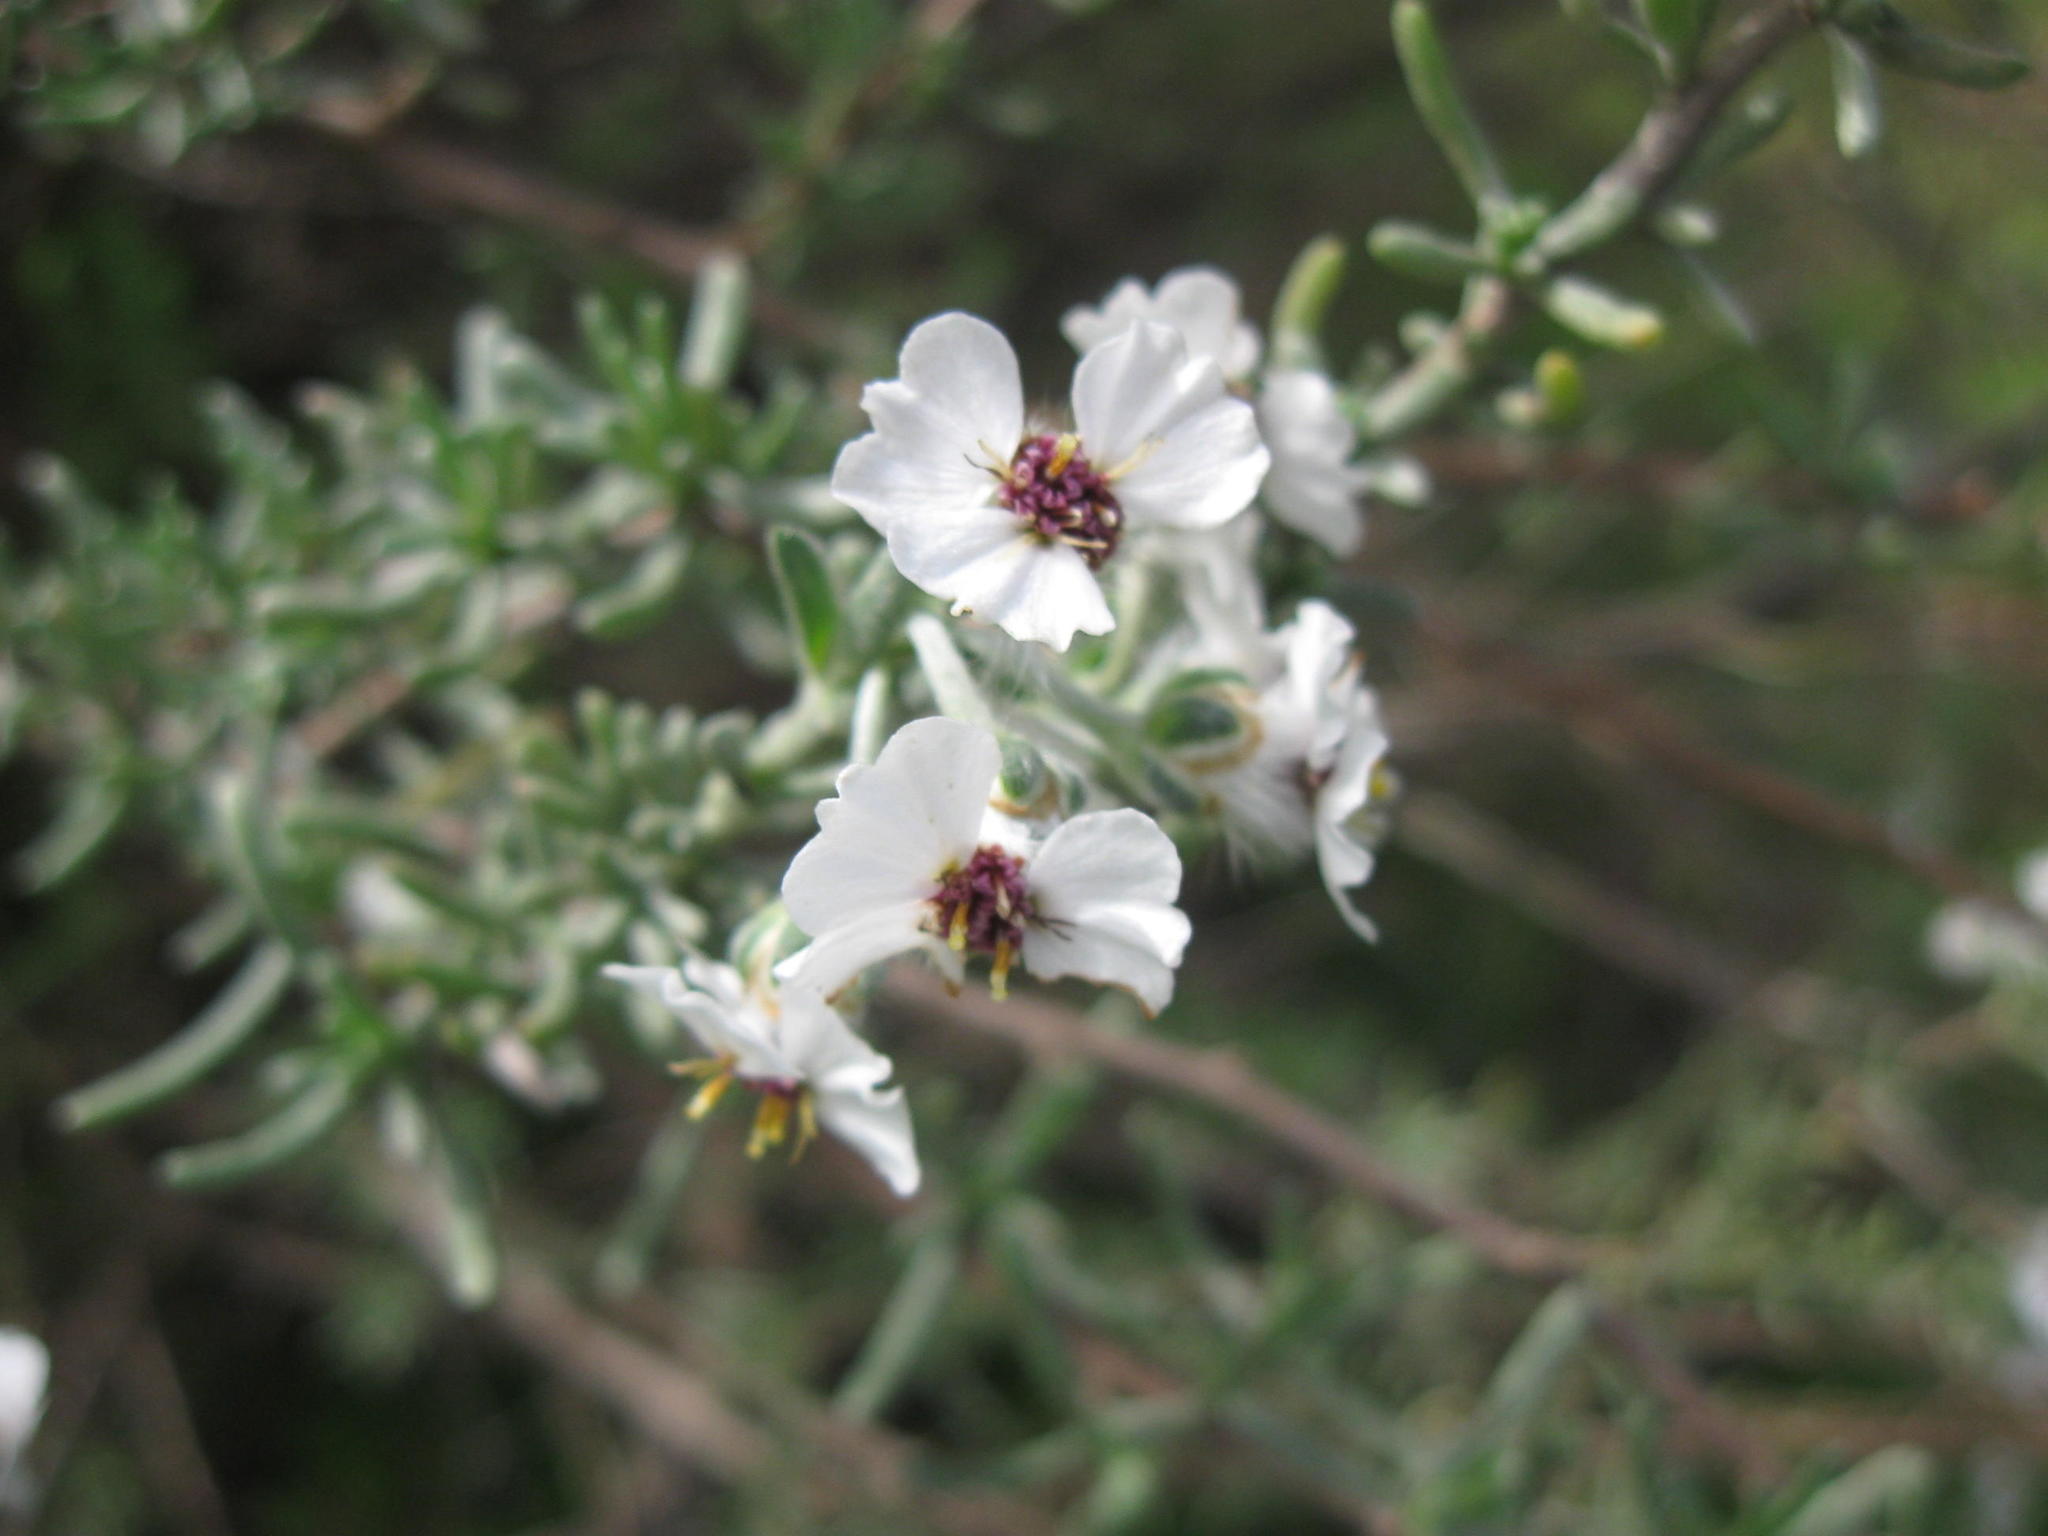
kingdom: Plantae
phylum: Tracheophyta
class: Magnoliopsida
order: Asterales
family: Asteraceae
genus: Eriocephalus
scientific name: Eriocephalus africanus
